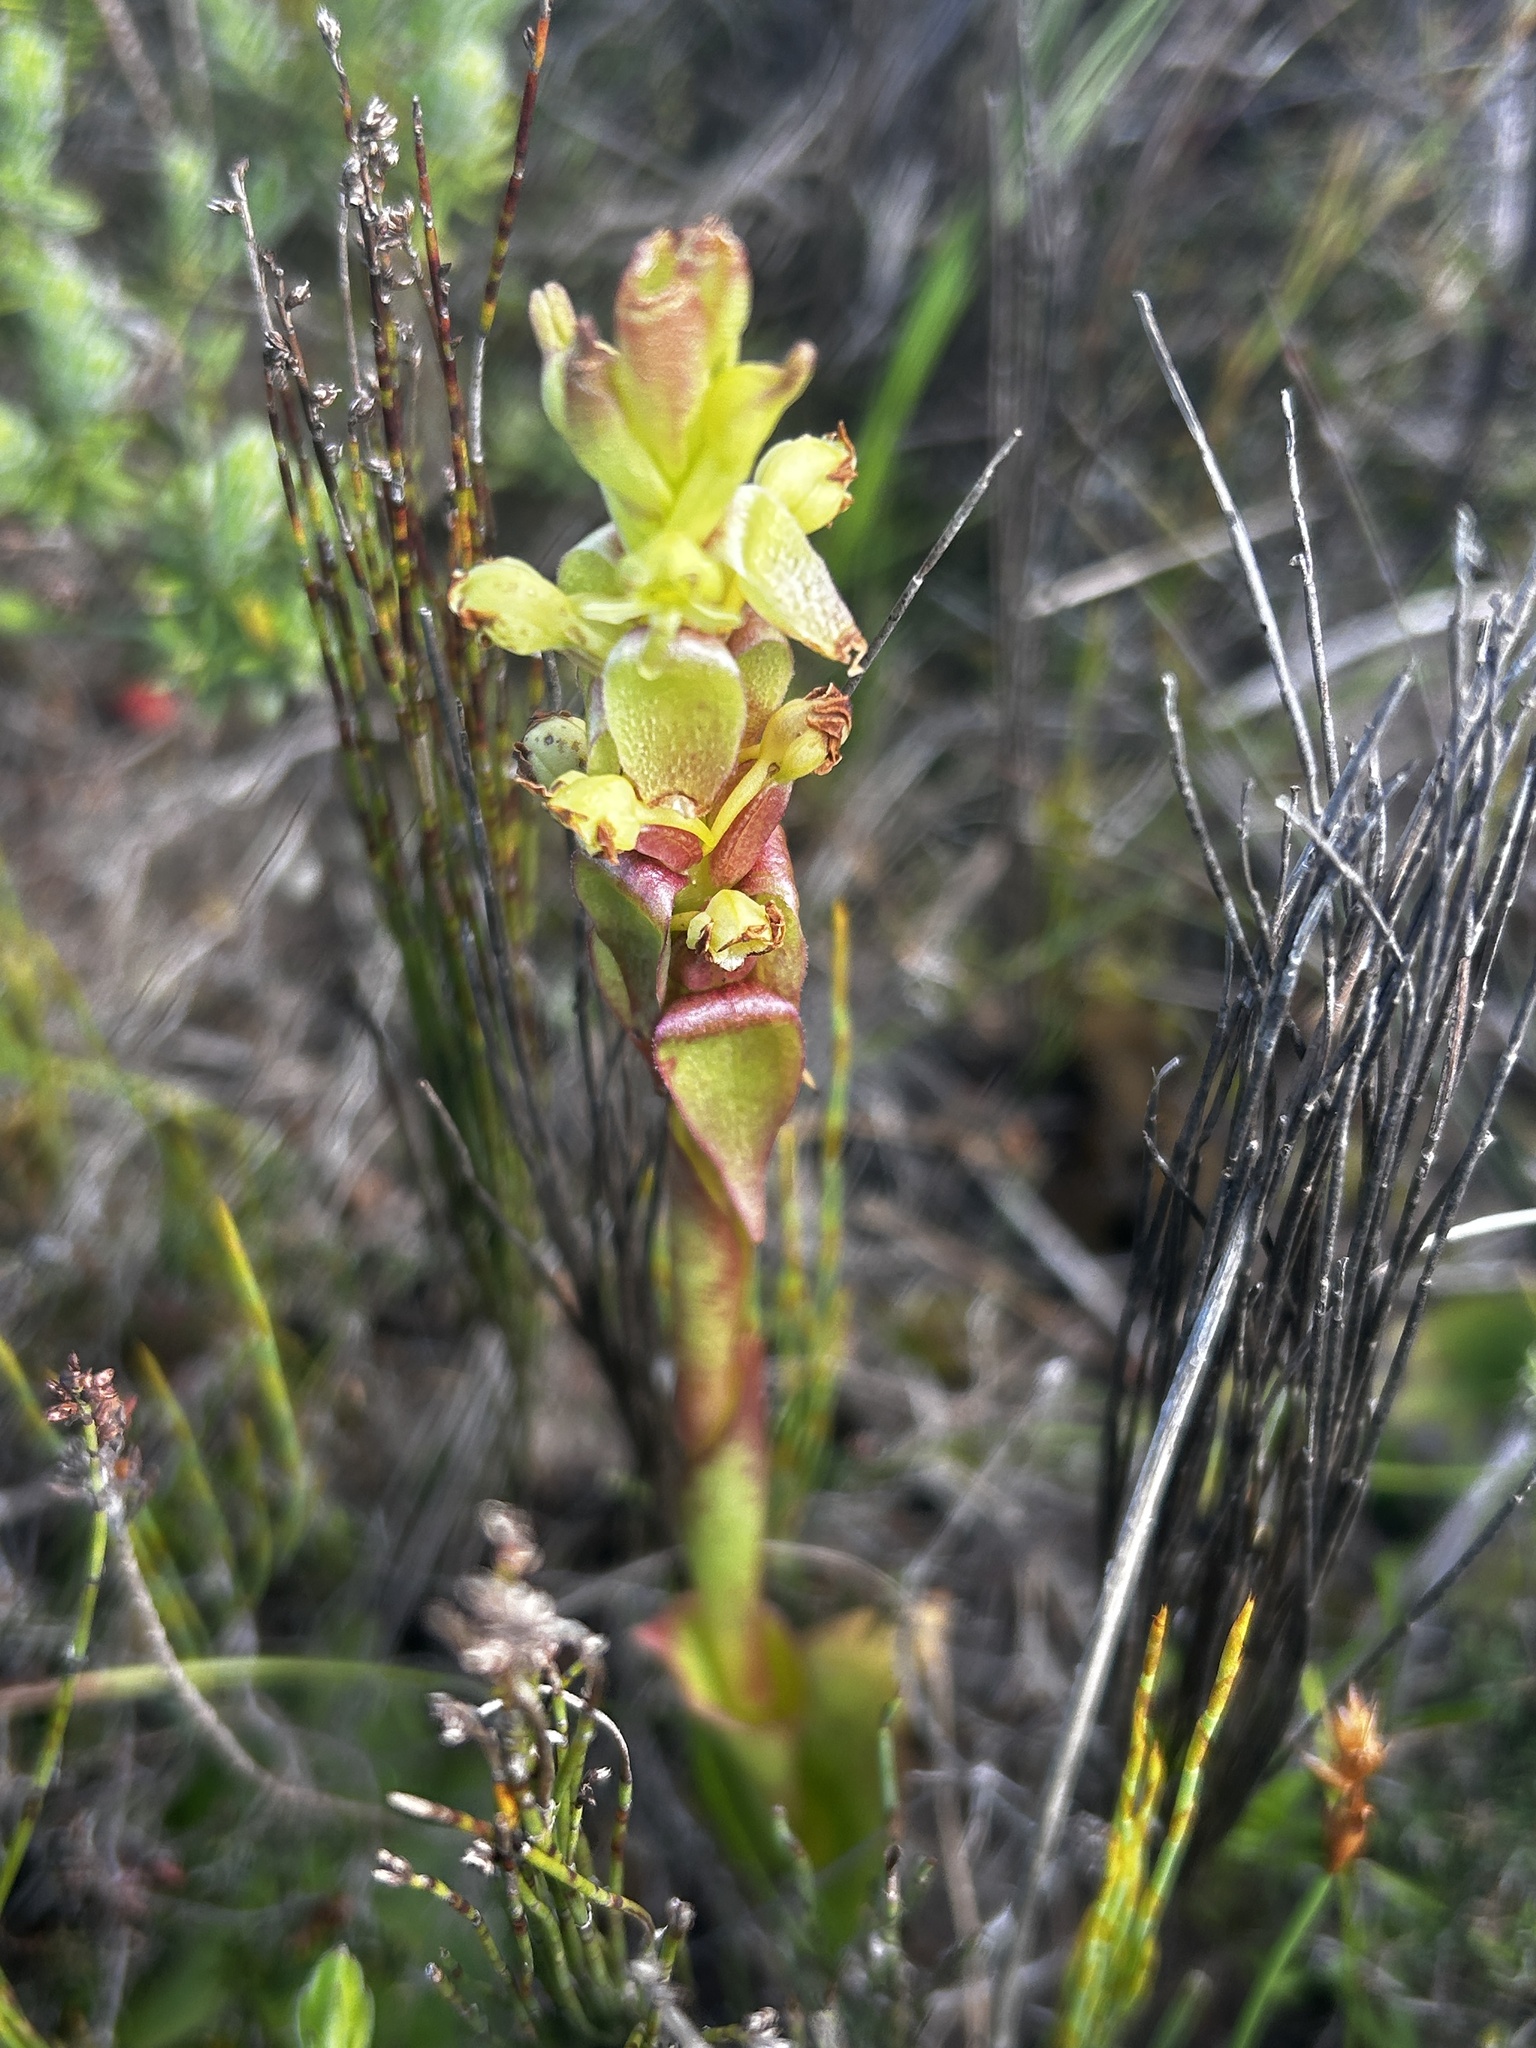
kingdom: Plantae
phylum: Tracheophyta
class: Liliopsida
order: Asparagales
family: Orchidaceae
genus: Satyrium
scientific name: Satyrium emarcidum
